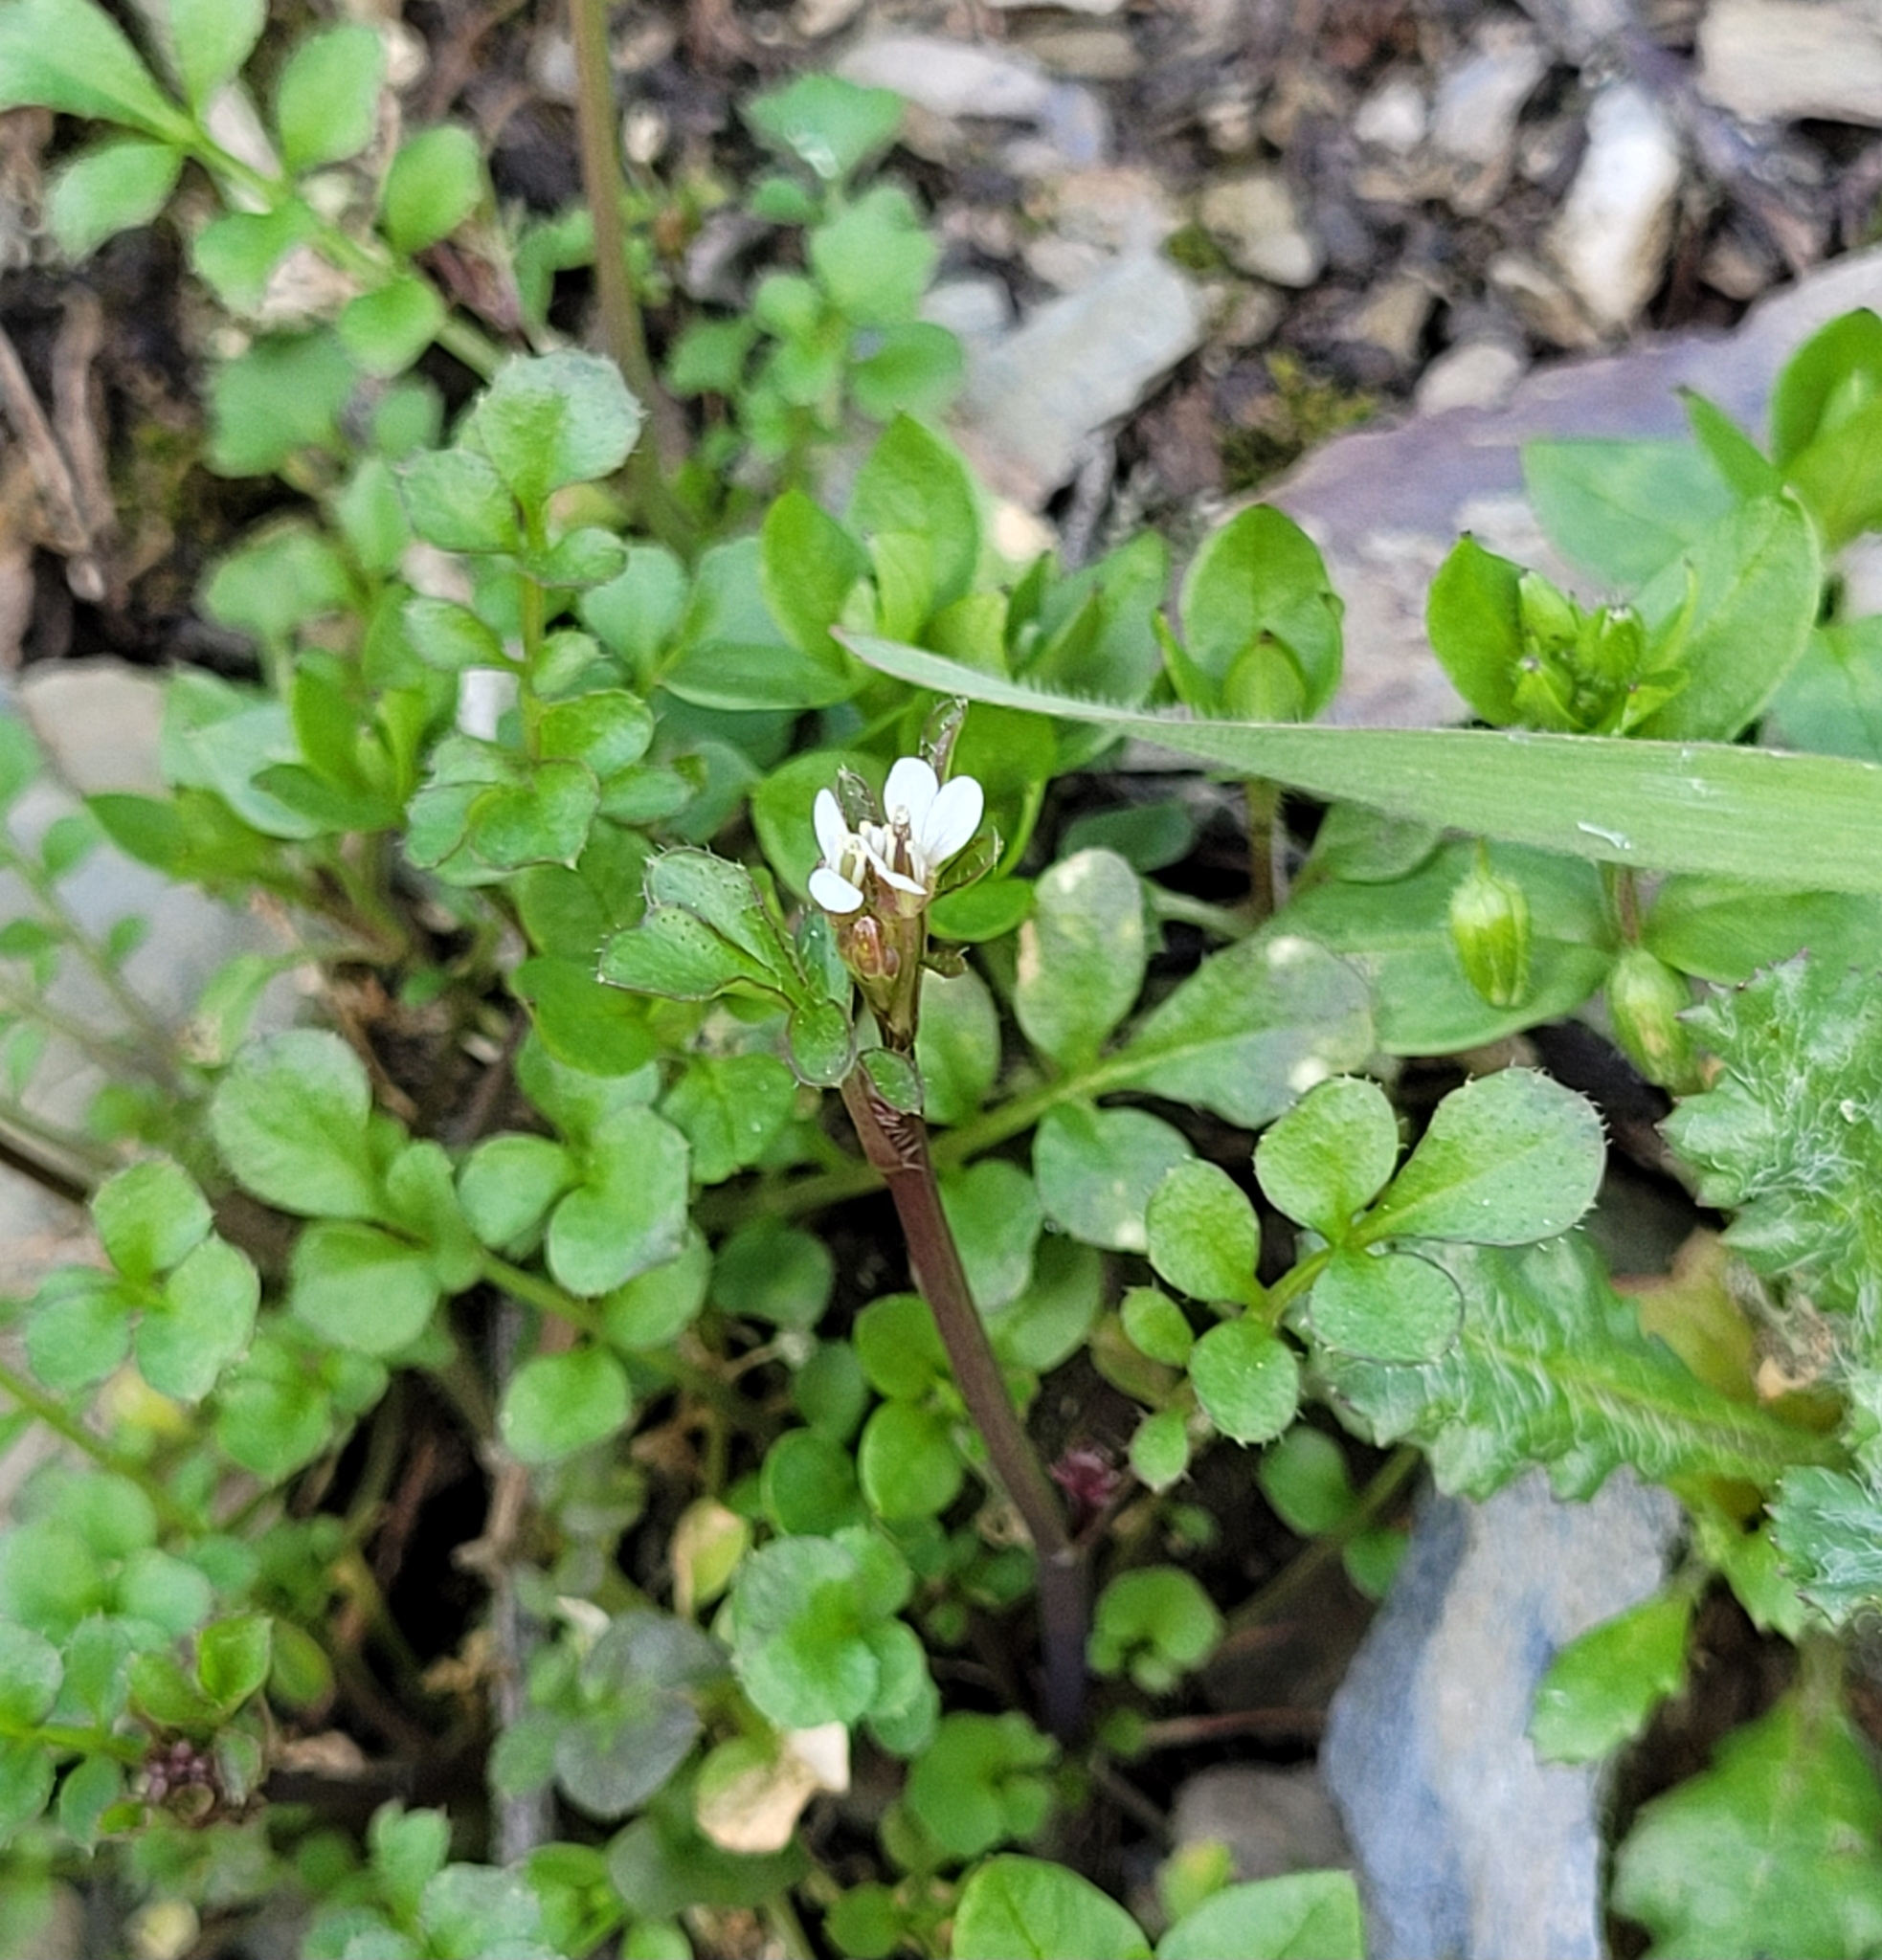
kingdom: Plantae
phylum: Tracheophyta
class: Magnoliopsida
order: Brassicales
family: Brassicaceae
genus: Cardamine
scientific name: Cardamine hirsuta
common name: Hairy bittercress
